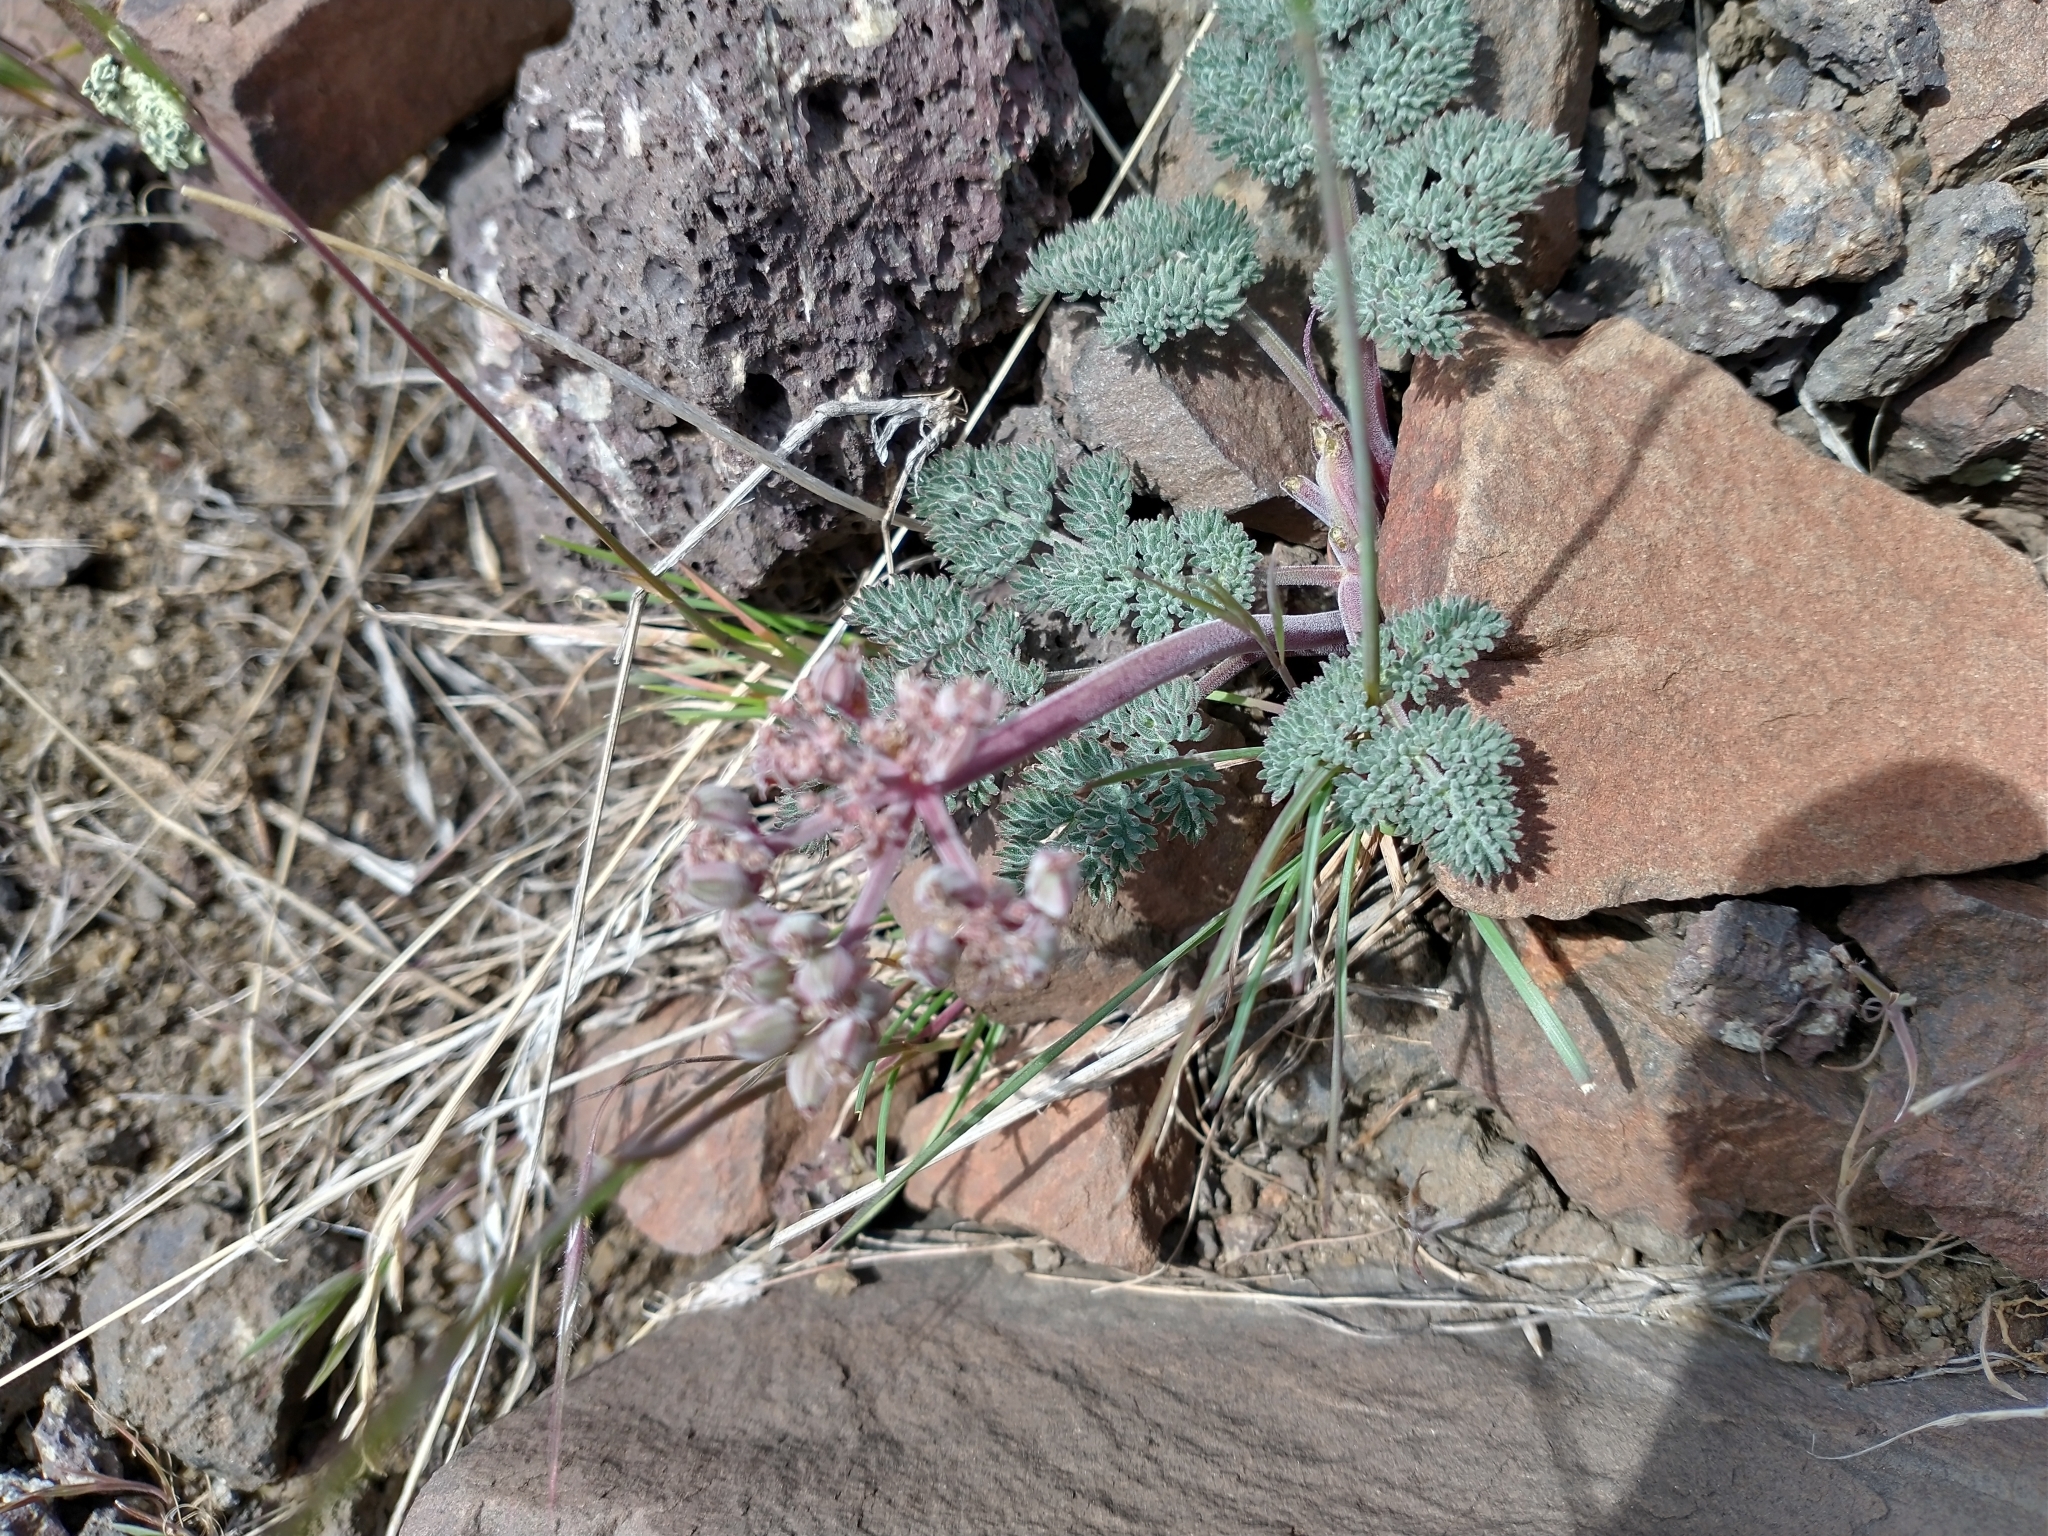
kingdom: Plantae
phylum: Tracheophyta
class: Magnoliopsida
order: Apiales
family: Apiaceae
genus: Lomatium
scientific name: Lomatium ravenii
